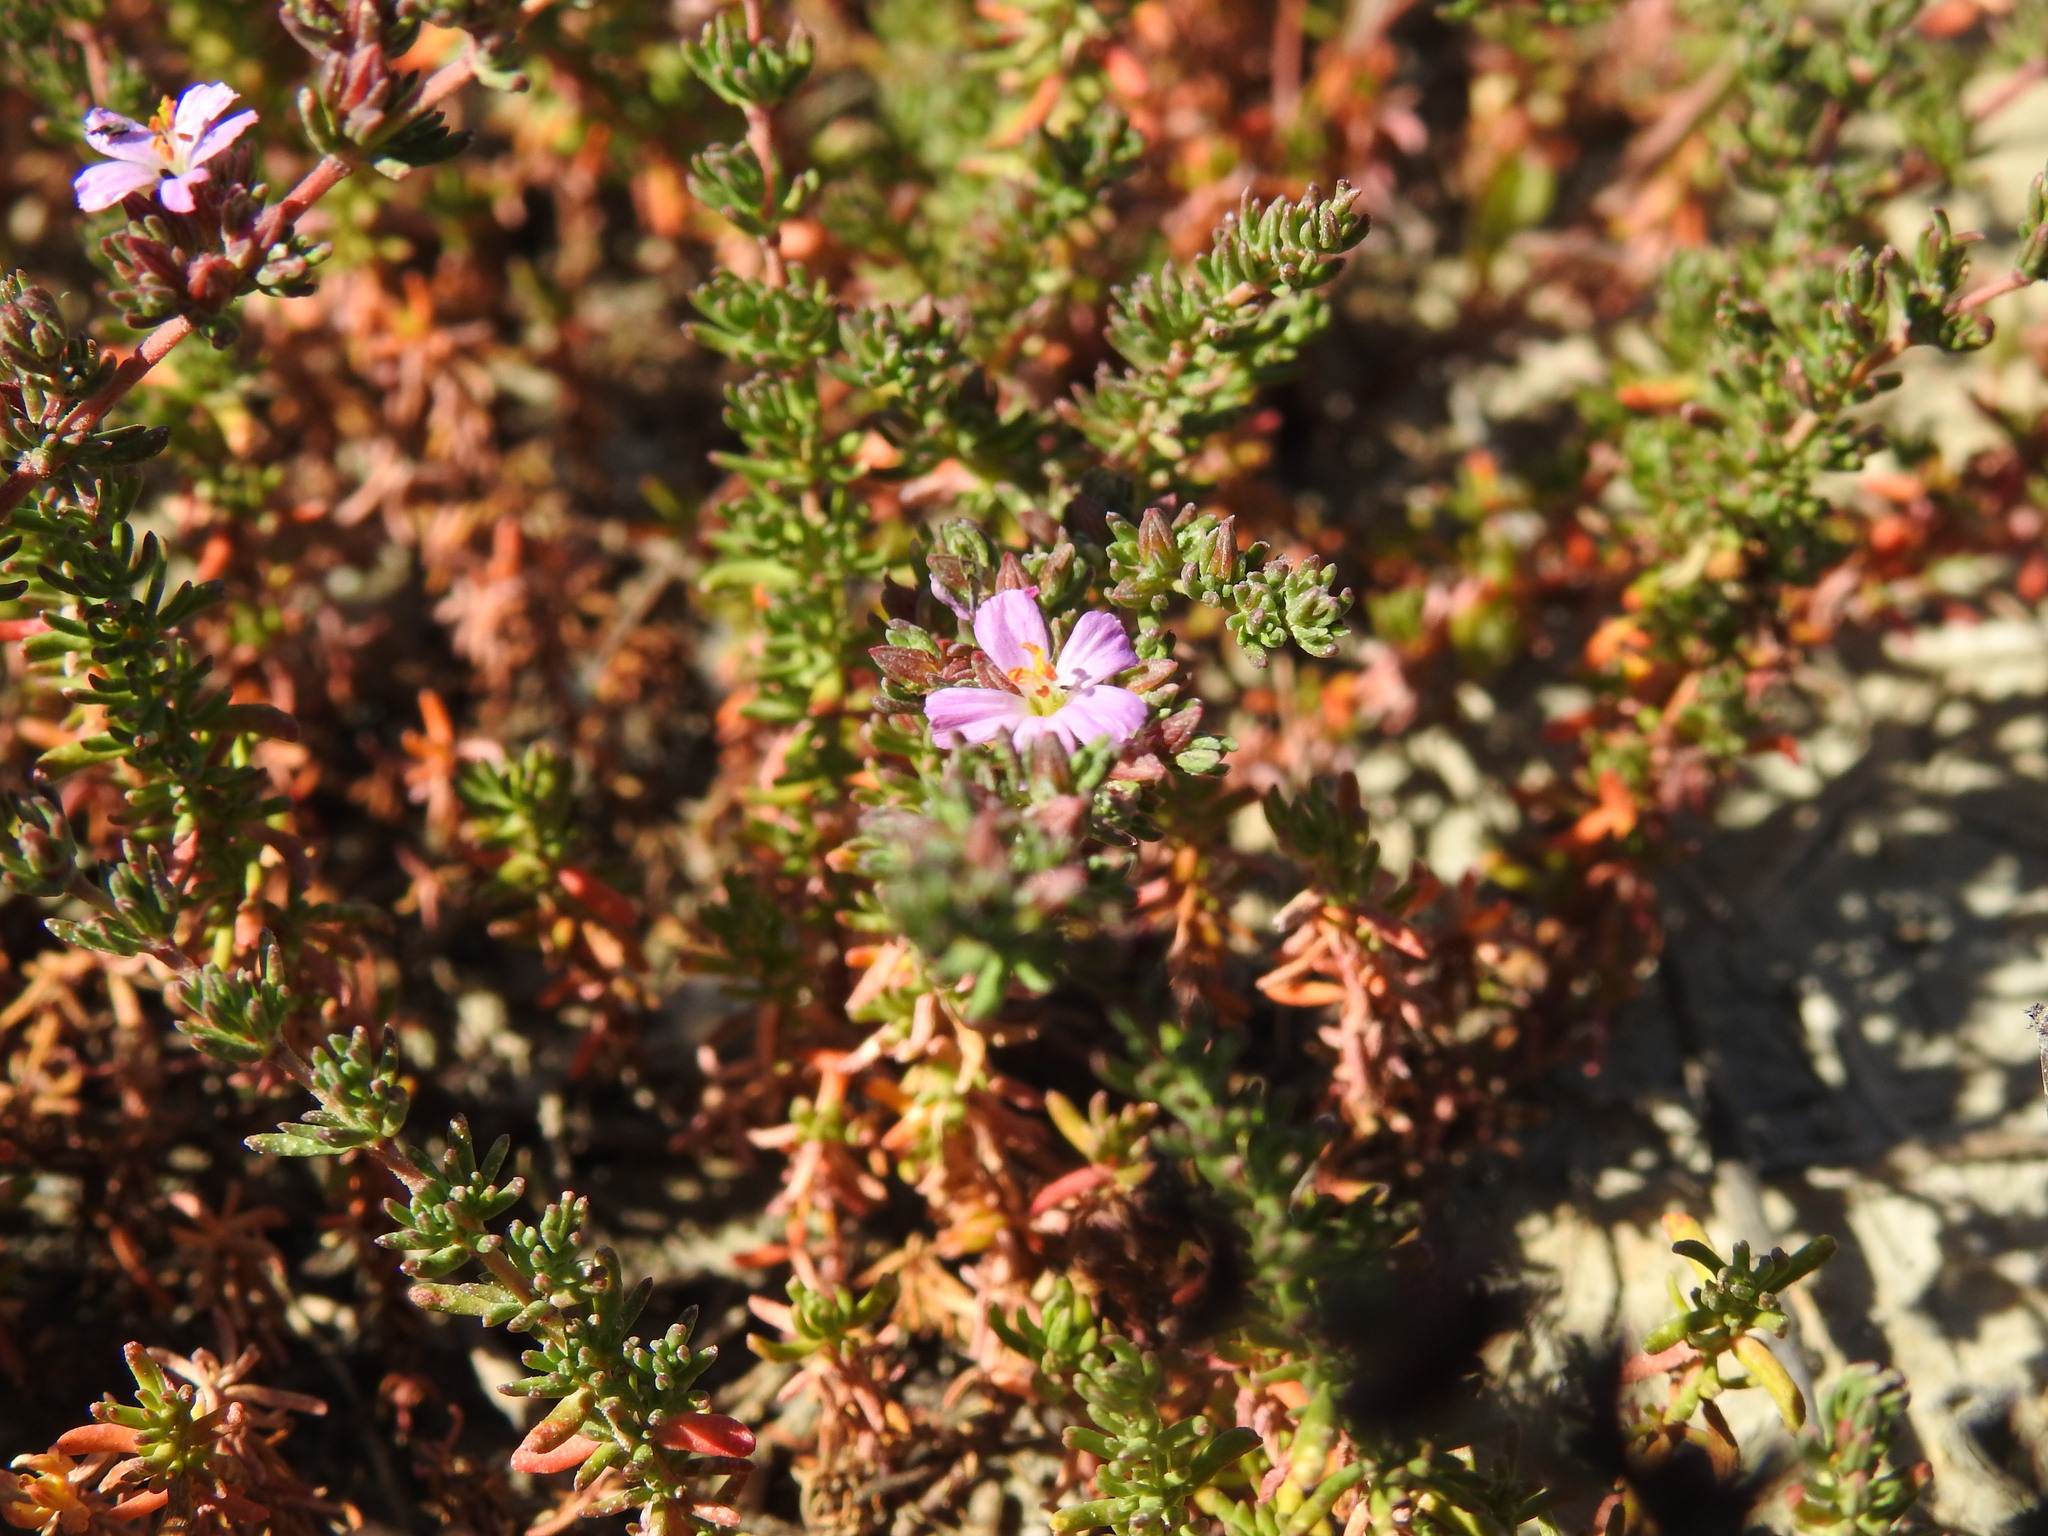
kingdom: Plantae
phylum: Tracheophyta
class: Magnoliopsida
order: Caryophyllales
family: Frankeniaceae
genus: Frankenia
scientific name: Frankenia laevis
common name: Sea-heath
